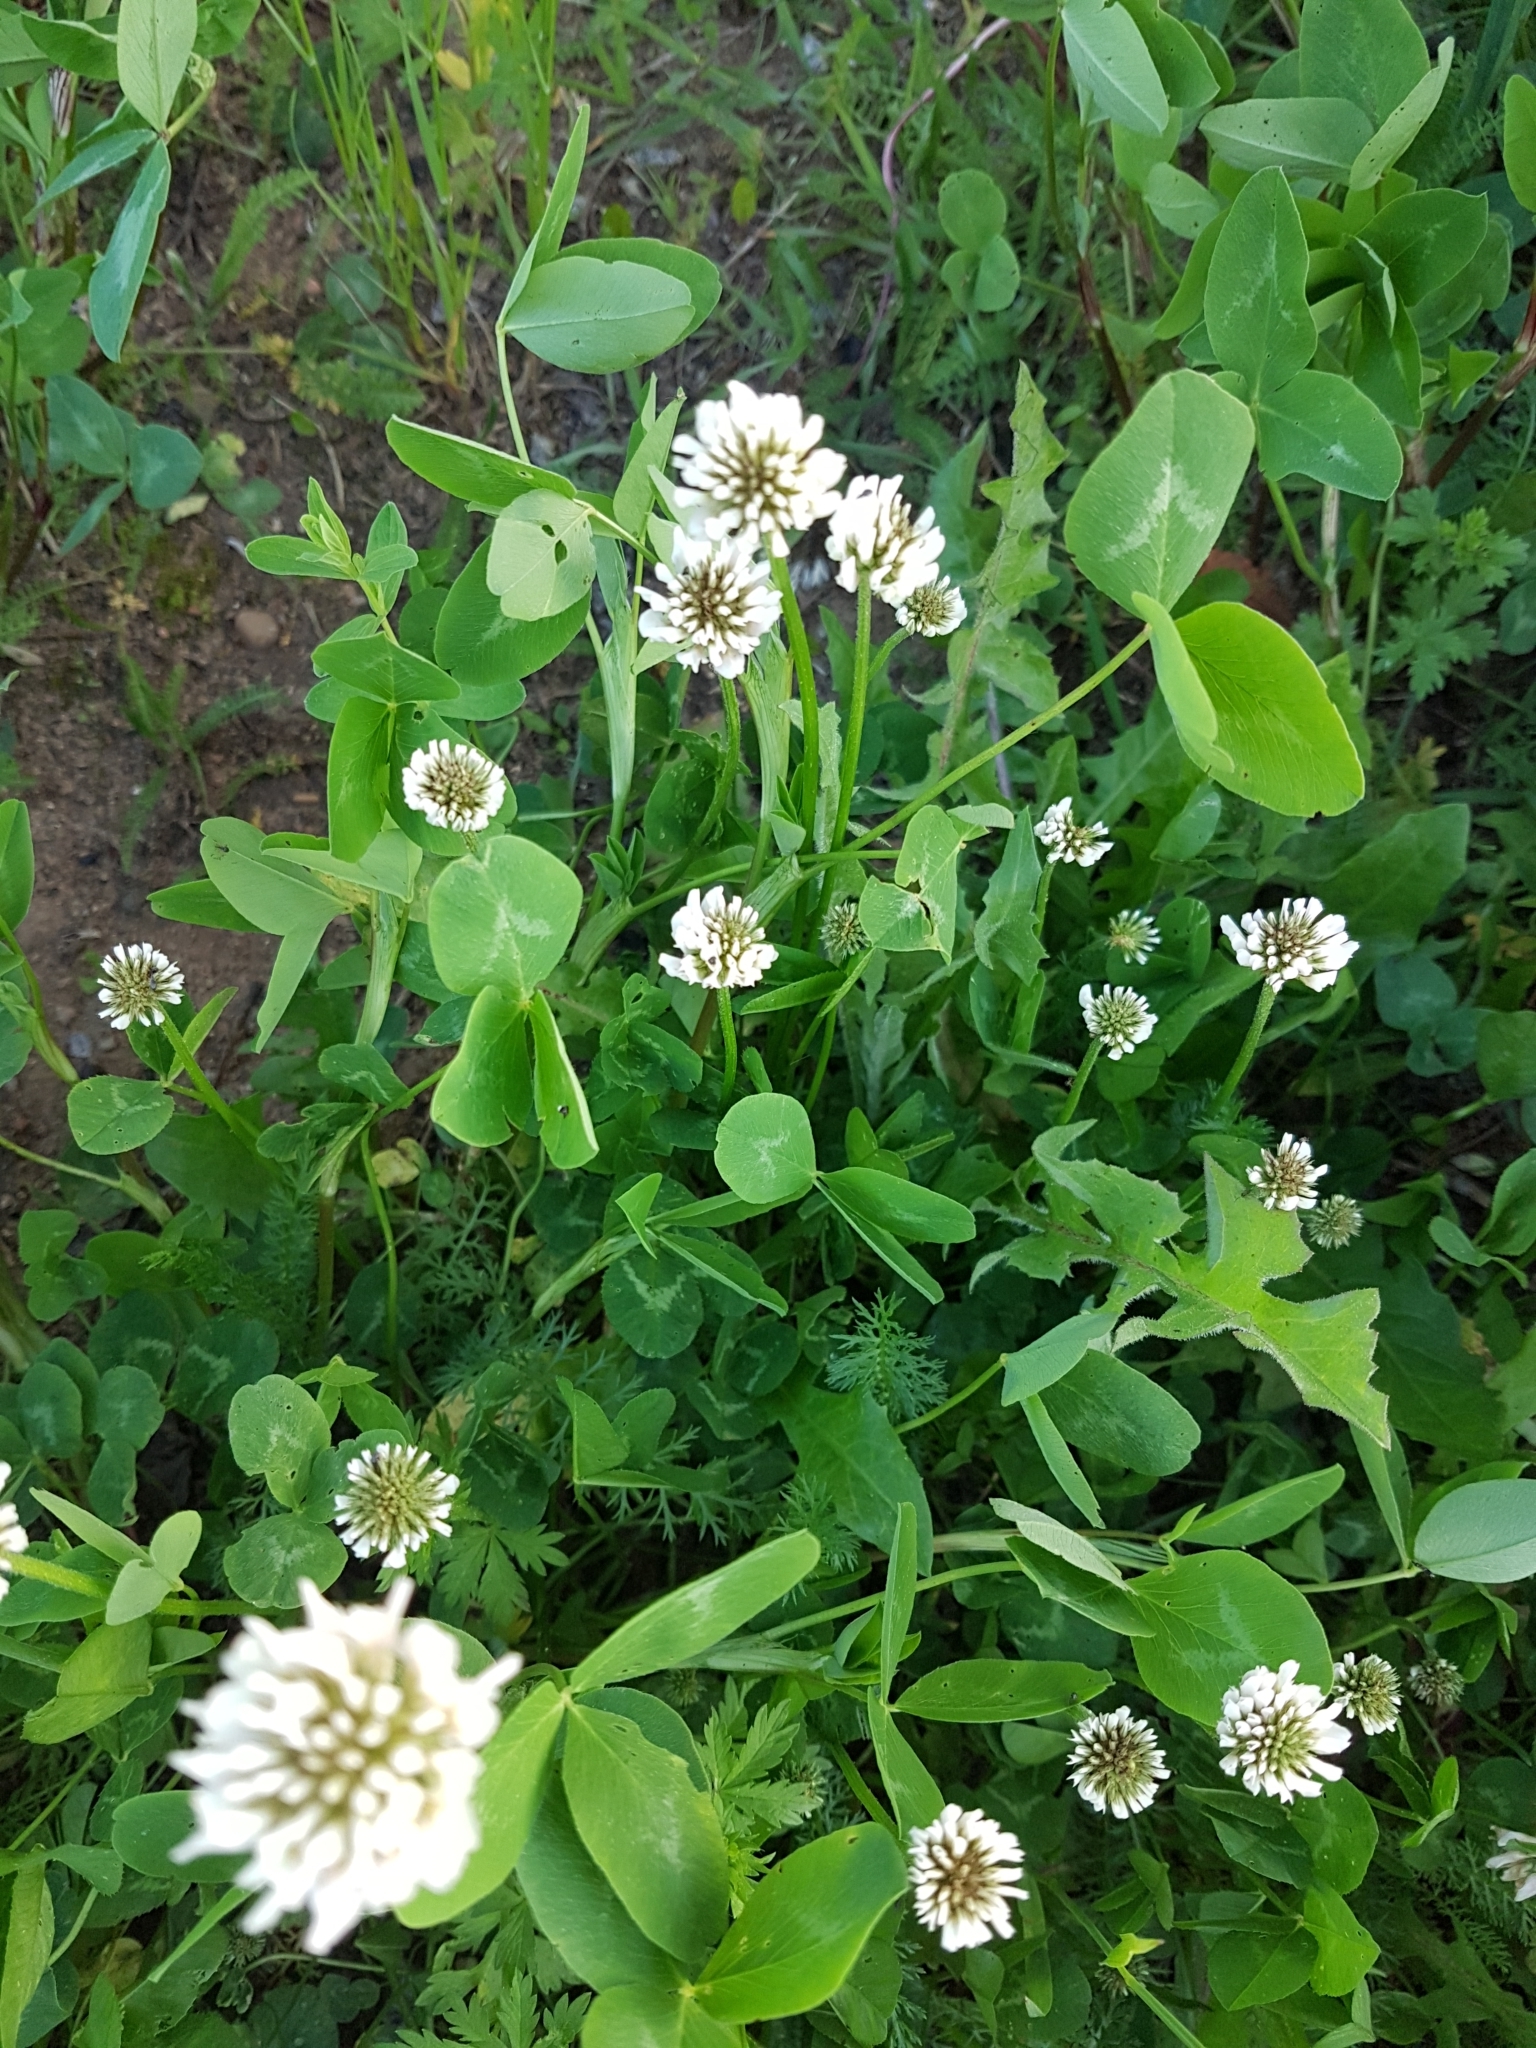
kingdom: Plantae
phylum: Tracheophyta
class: Magnoliopsida
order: Fabales
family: Fabaceae
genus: Trifolium
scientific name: Trifolium repens
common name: White clover
